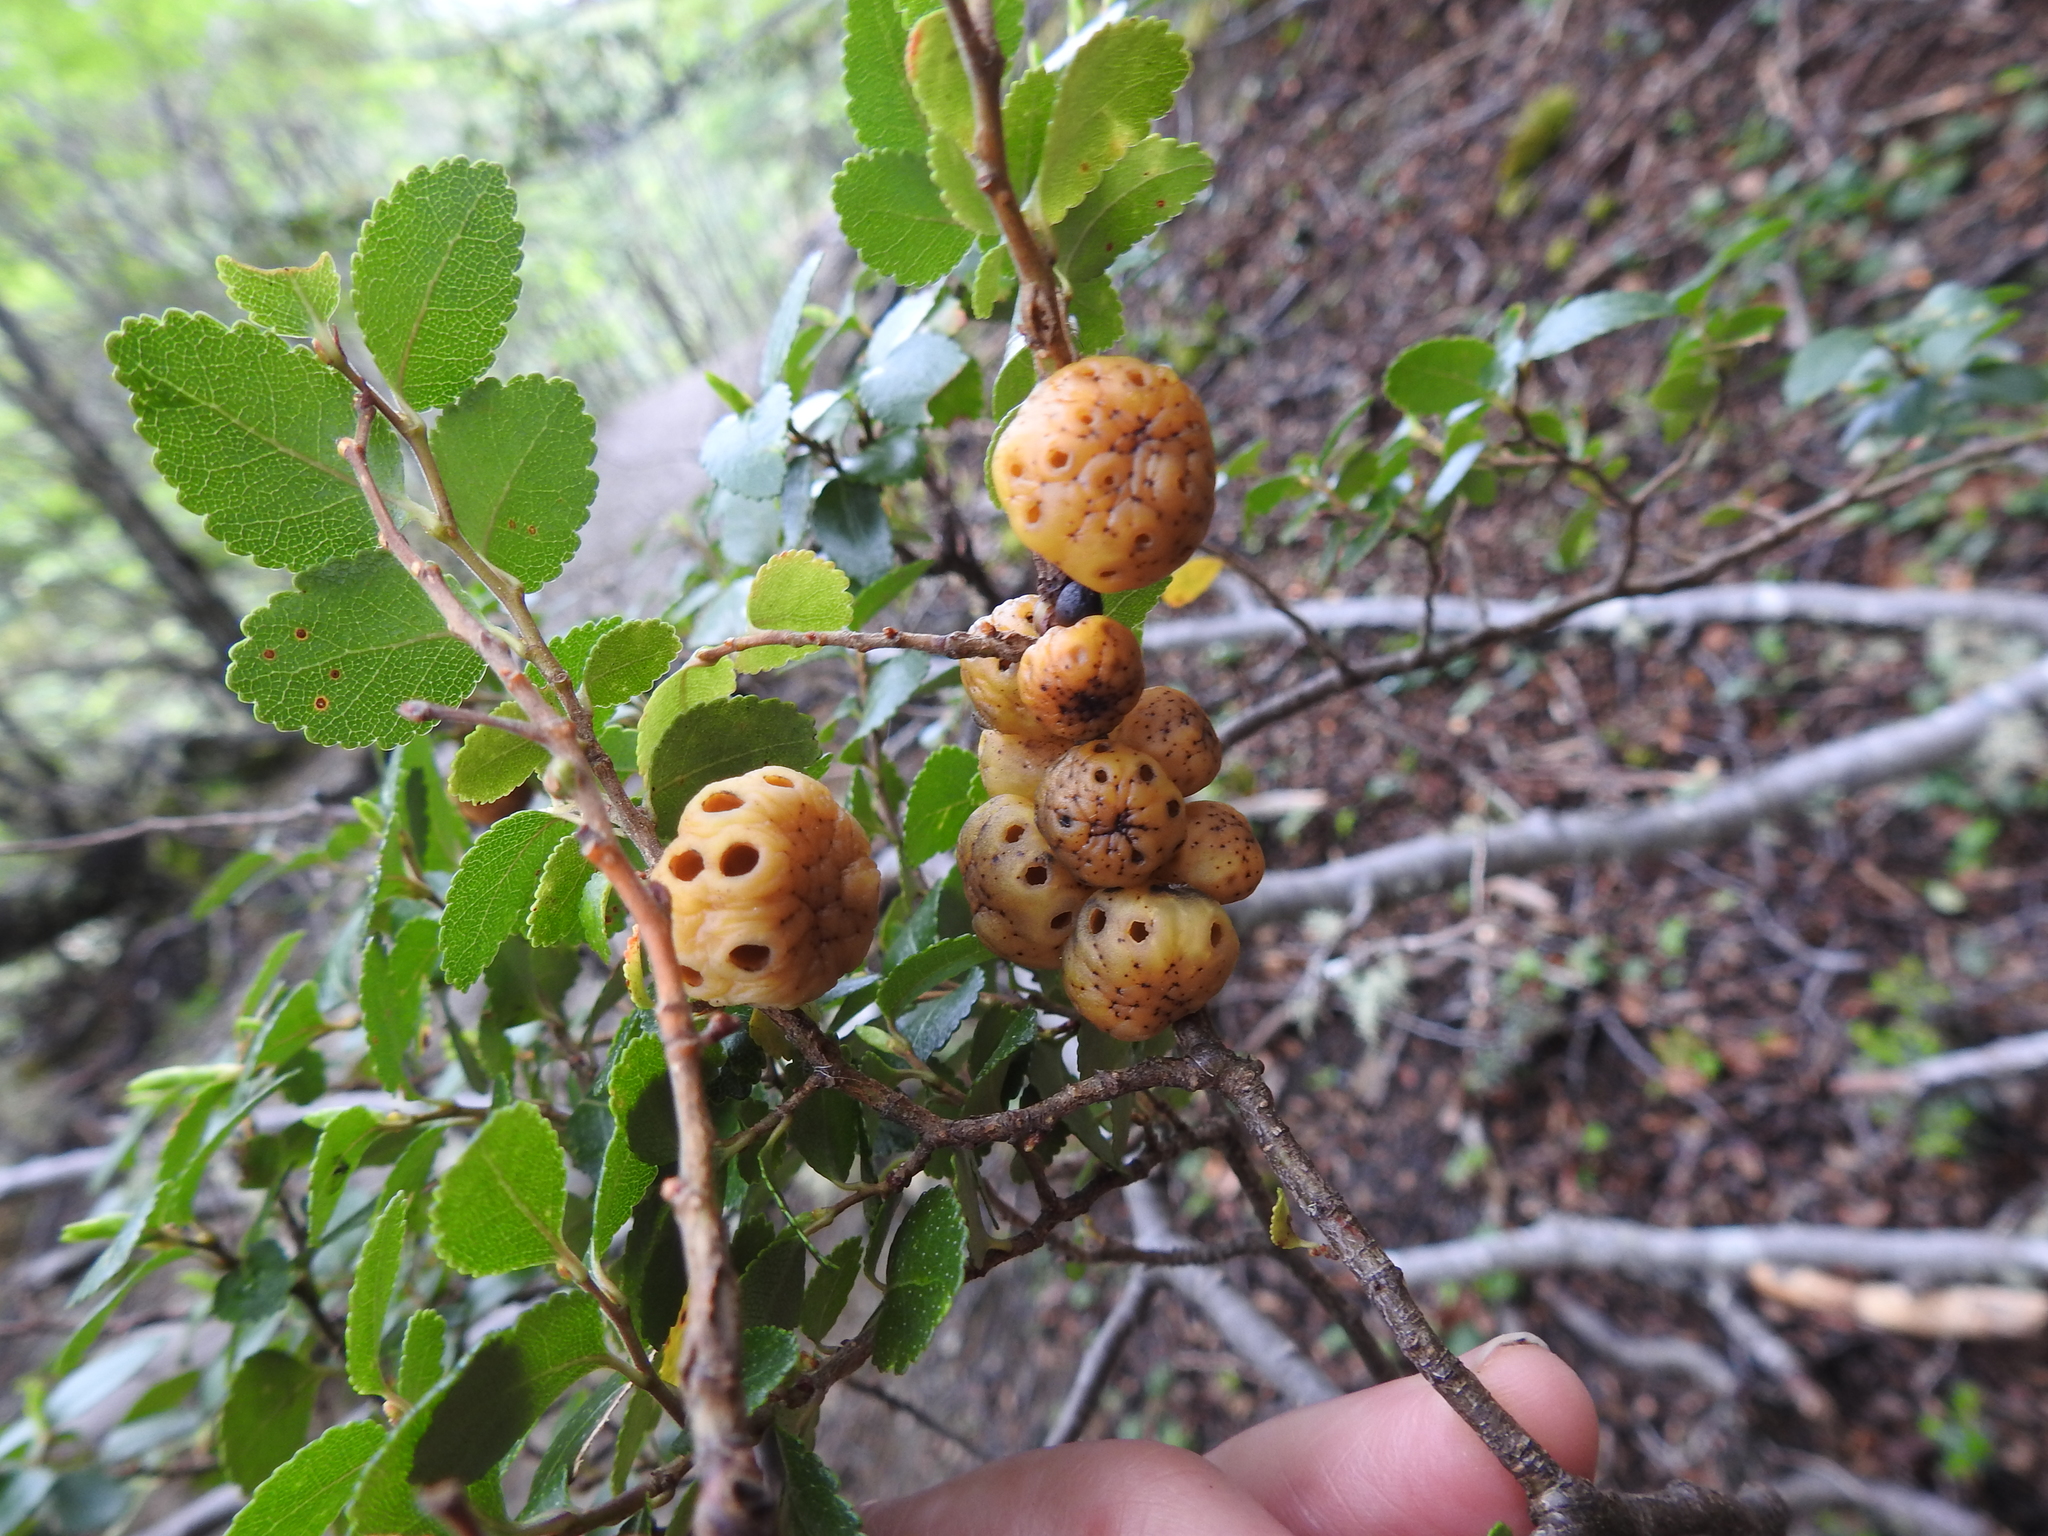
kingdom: Fungi
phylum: Ascomycota
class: Leotiomycetes
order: Cyttariales
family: Cyttariaceae
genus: Cyttaria
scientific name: Cyttaria johowii
